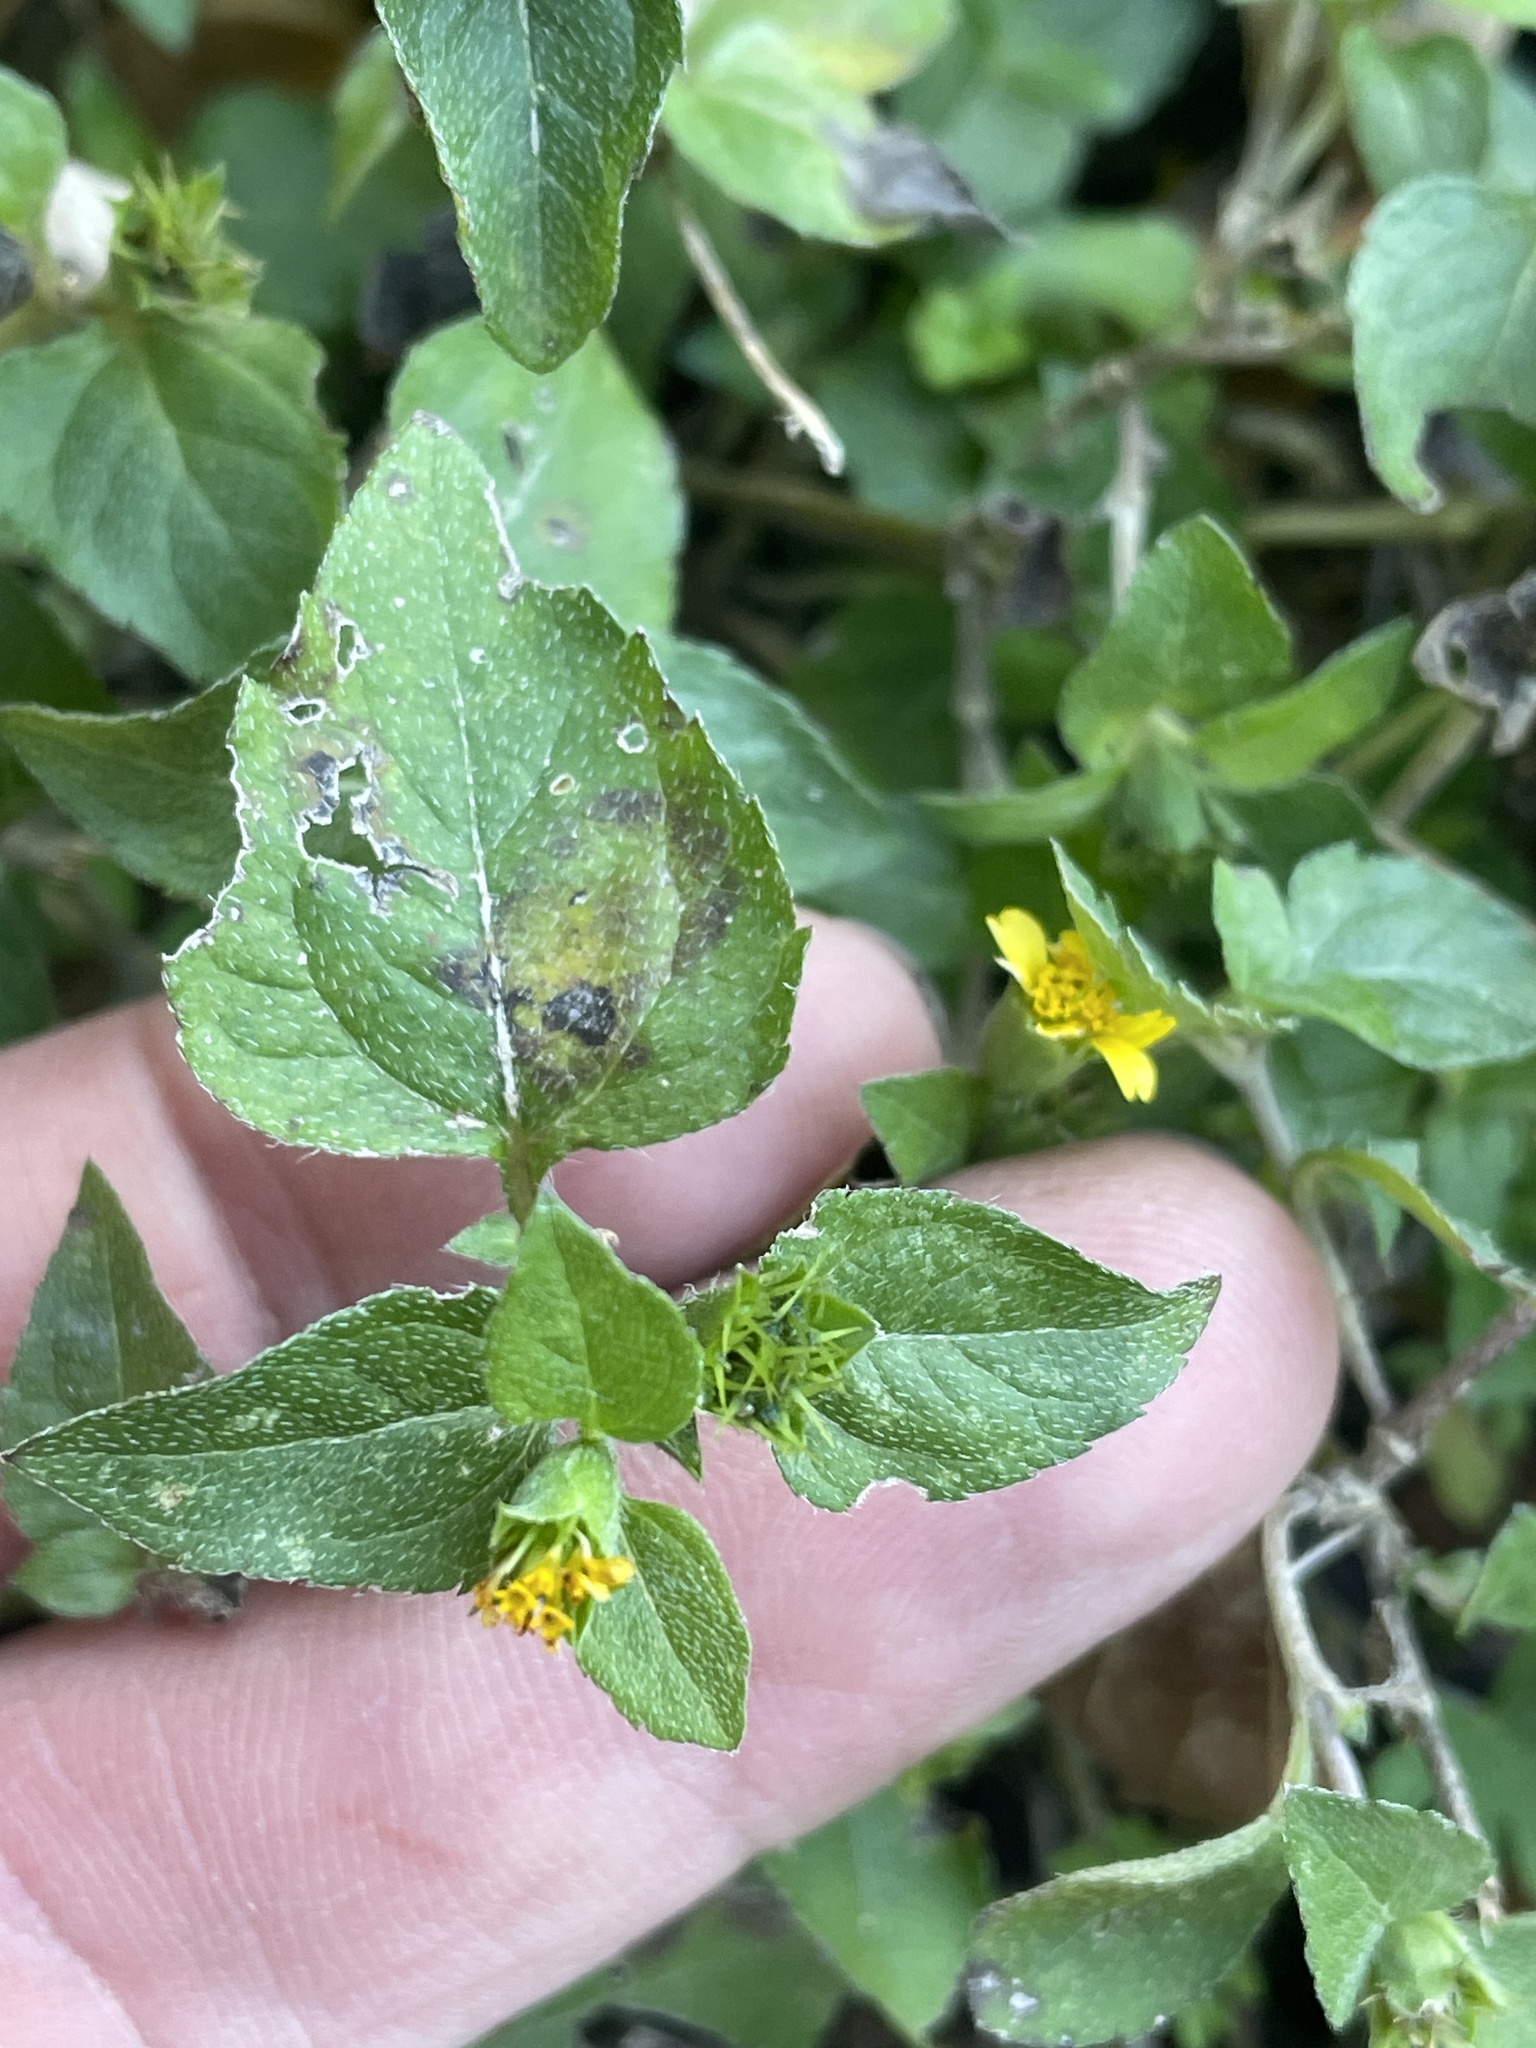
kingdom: Plantae
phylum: Tracheophyta
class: Magnoliopsida
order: Asterales
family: Asteraceae
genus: Calyptocarpus
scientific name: Calyptocarpus vialis
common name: Straggler daisy
